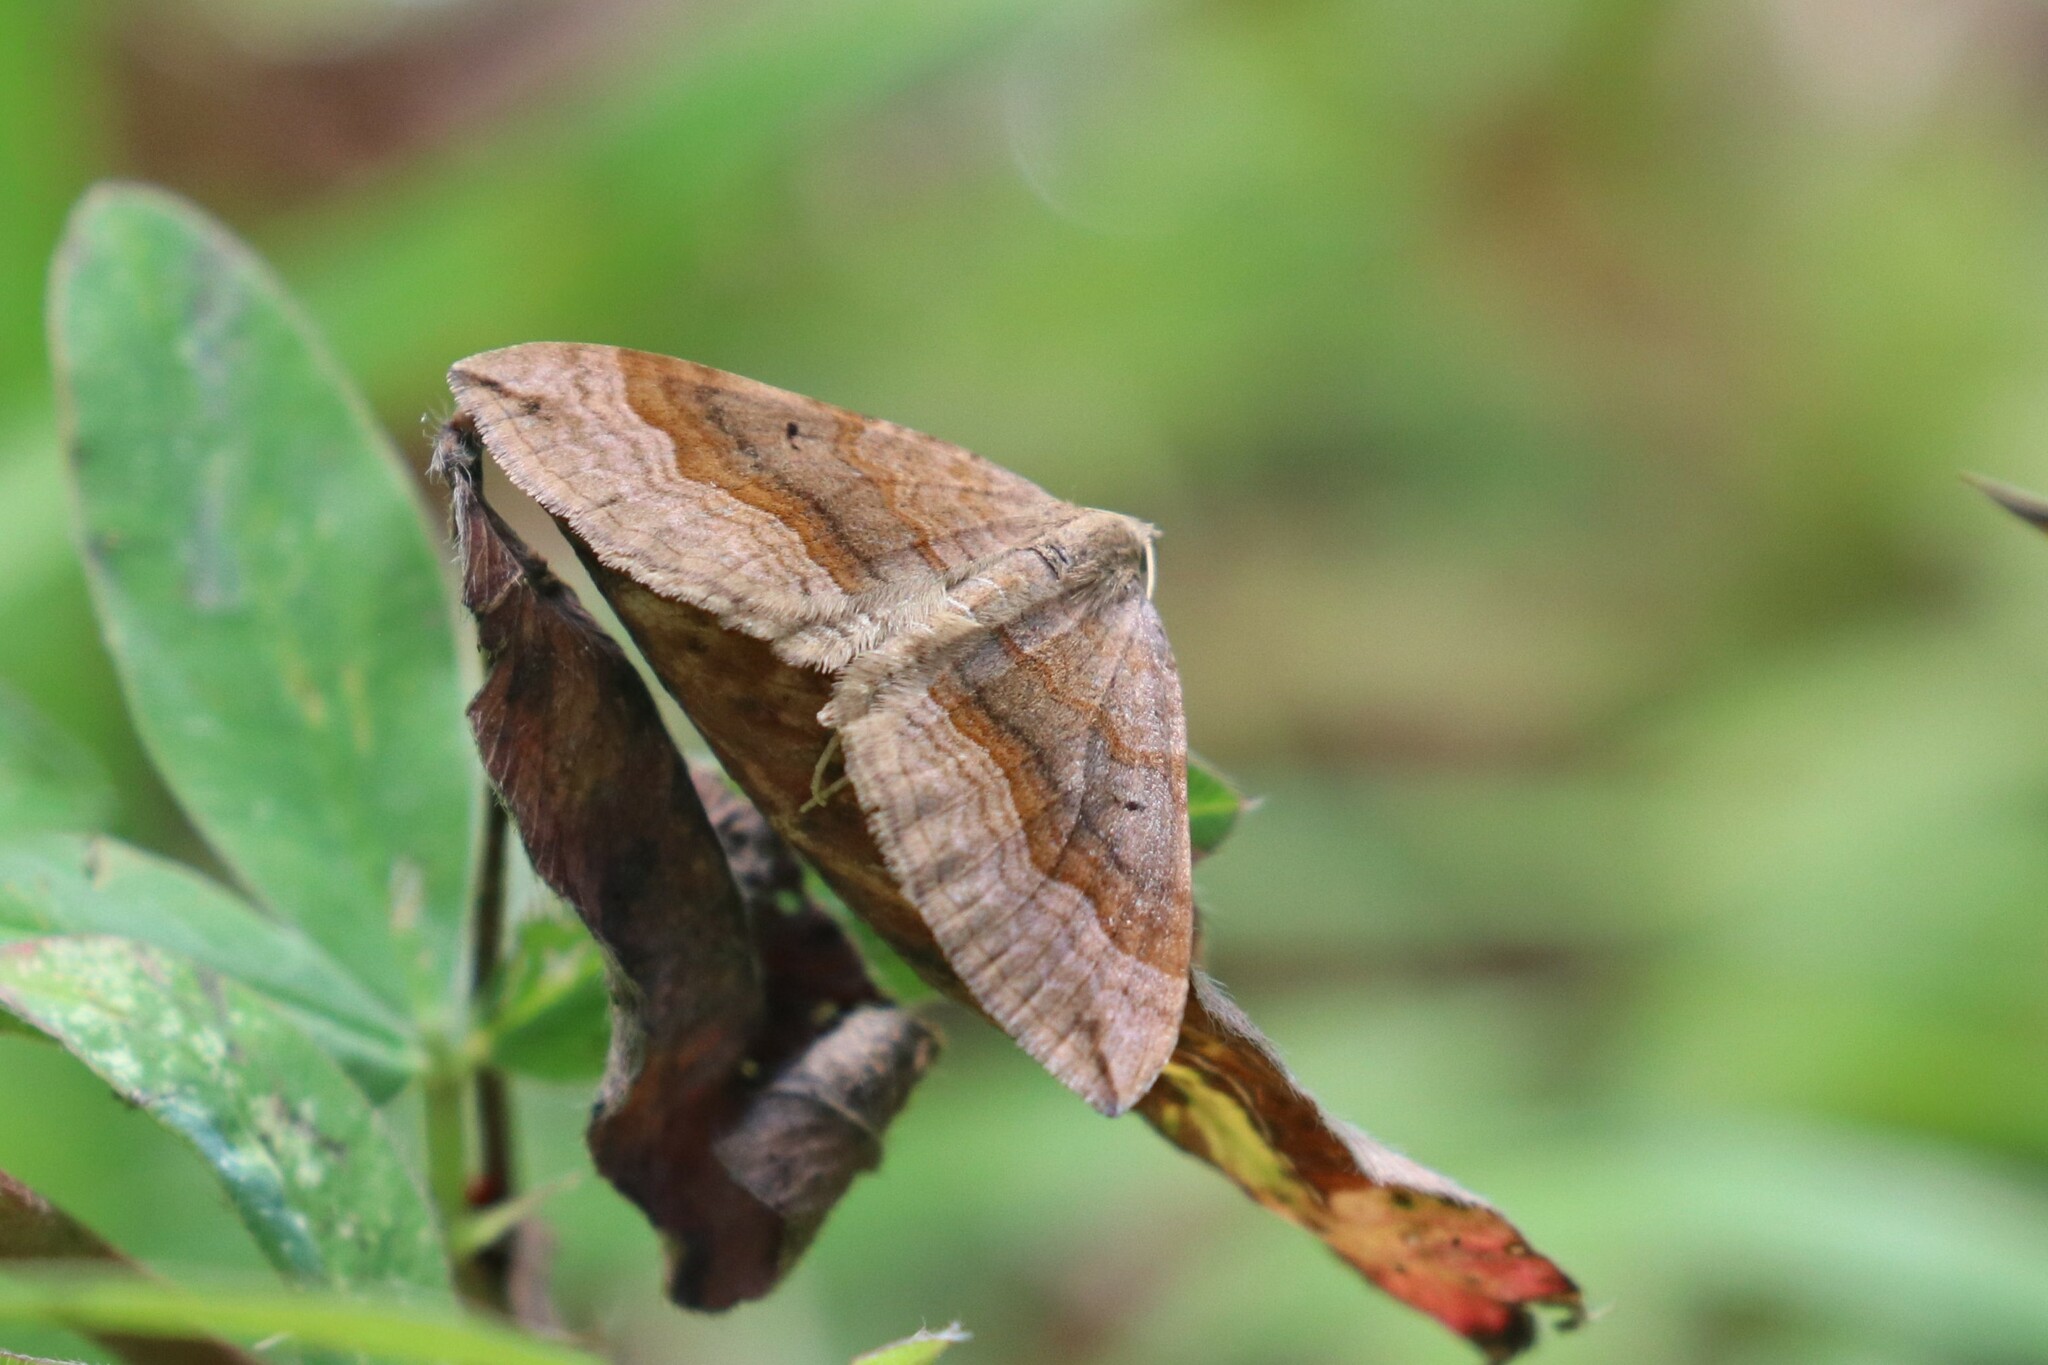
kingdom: Animalia
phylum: Arthropoda
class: Insecta
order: Lepidoptera
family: Geometridae
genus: Scotopteryx
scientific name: Scotopteryx chenopodiata
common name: Shaded broad-bar
